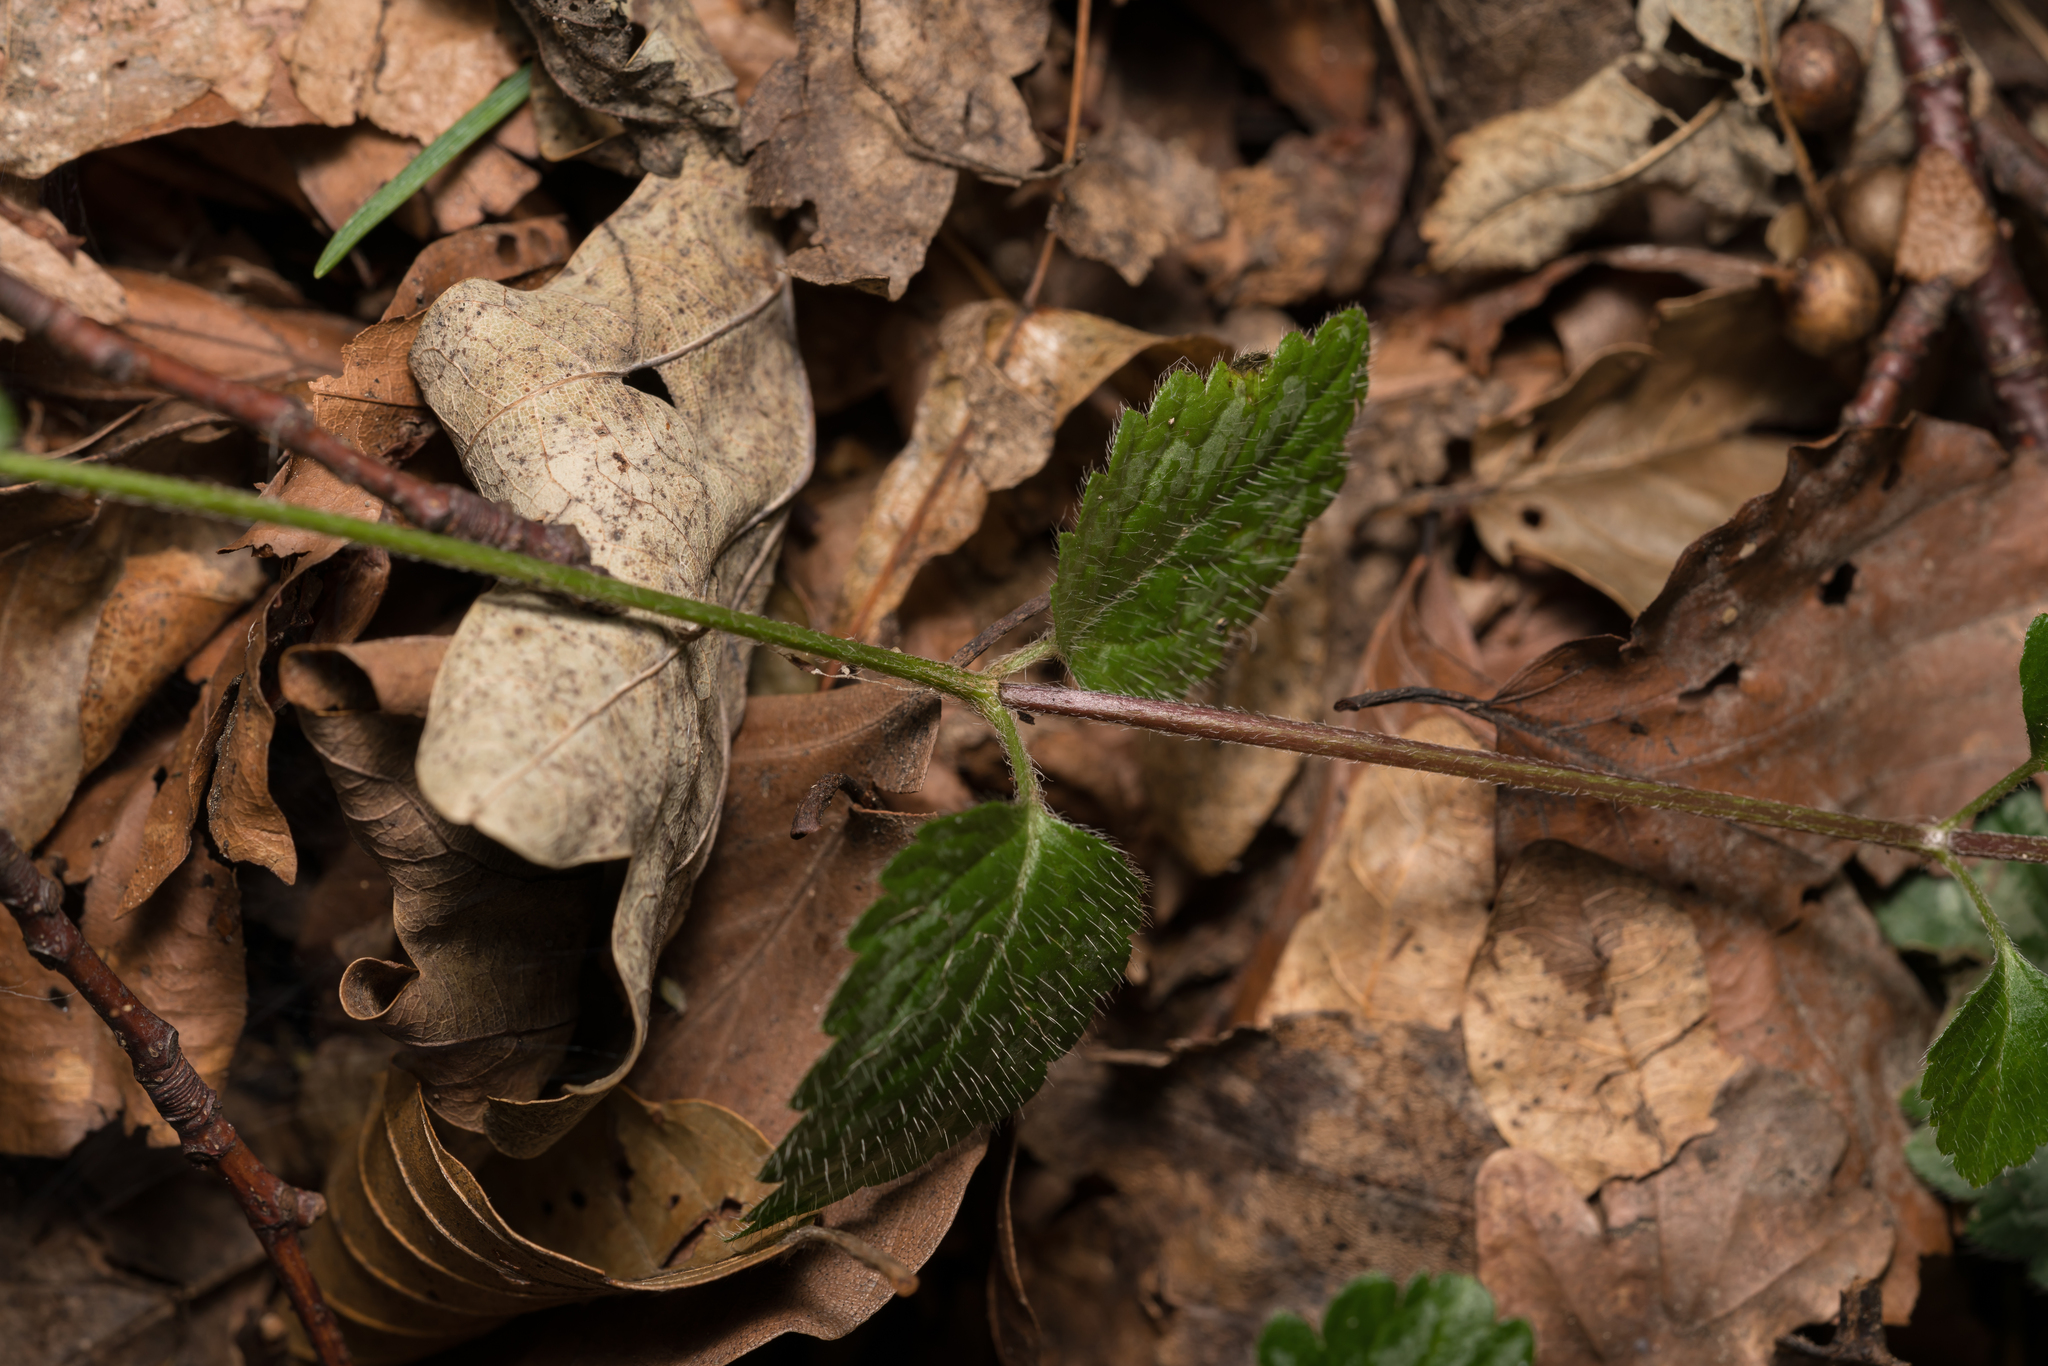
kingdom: Plantae
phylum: Tracheophyta
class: Magnoliopsida
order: Lamiales
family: Lamiaceae
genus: Lamium
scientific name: Lamium galeobdolon
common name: Yellow archangel
